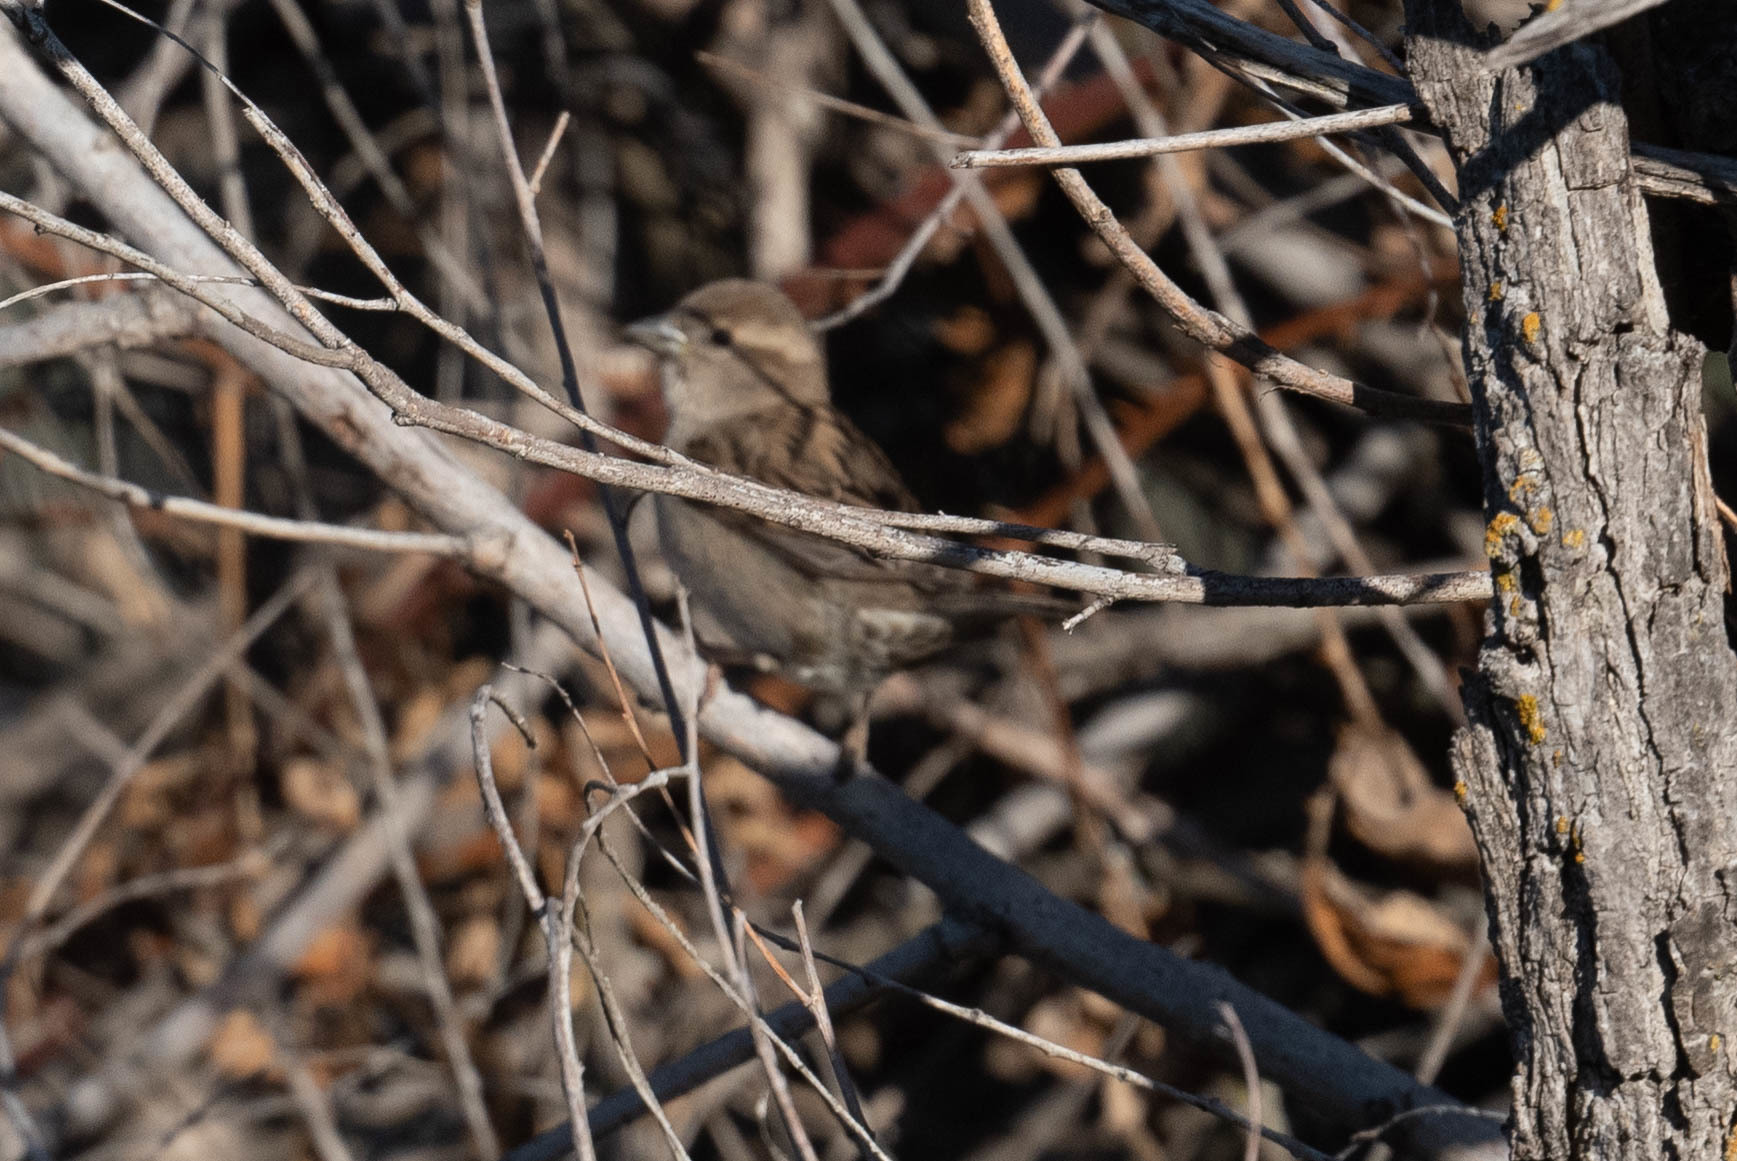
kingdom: Animalia
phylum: Chordata
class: Aves
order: Passeriformes
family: Passeridae
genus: Passer
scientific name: Passer domesticus
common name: House sparrow
